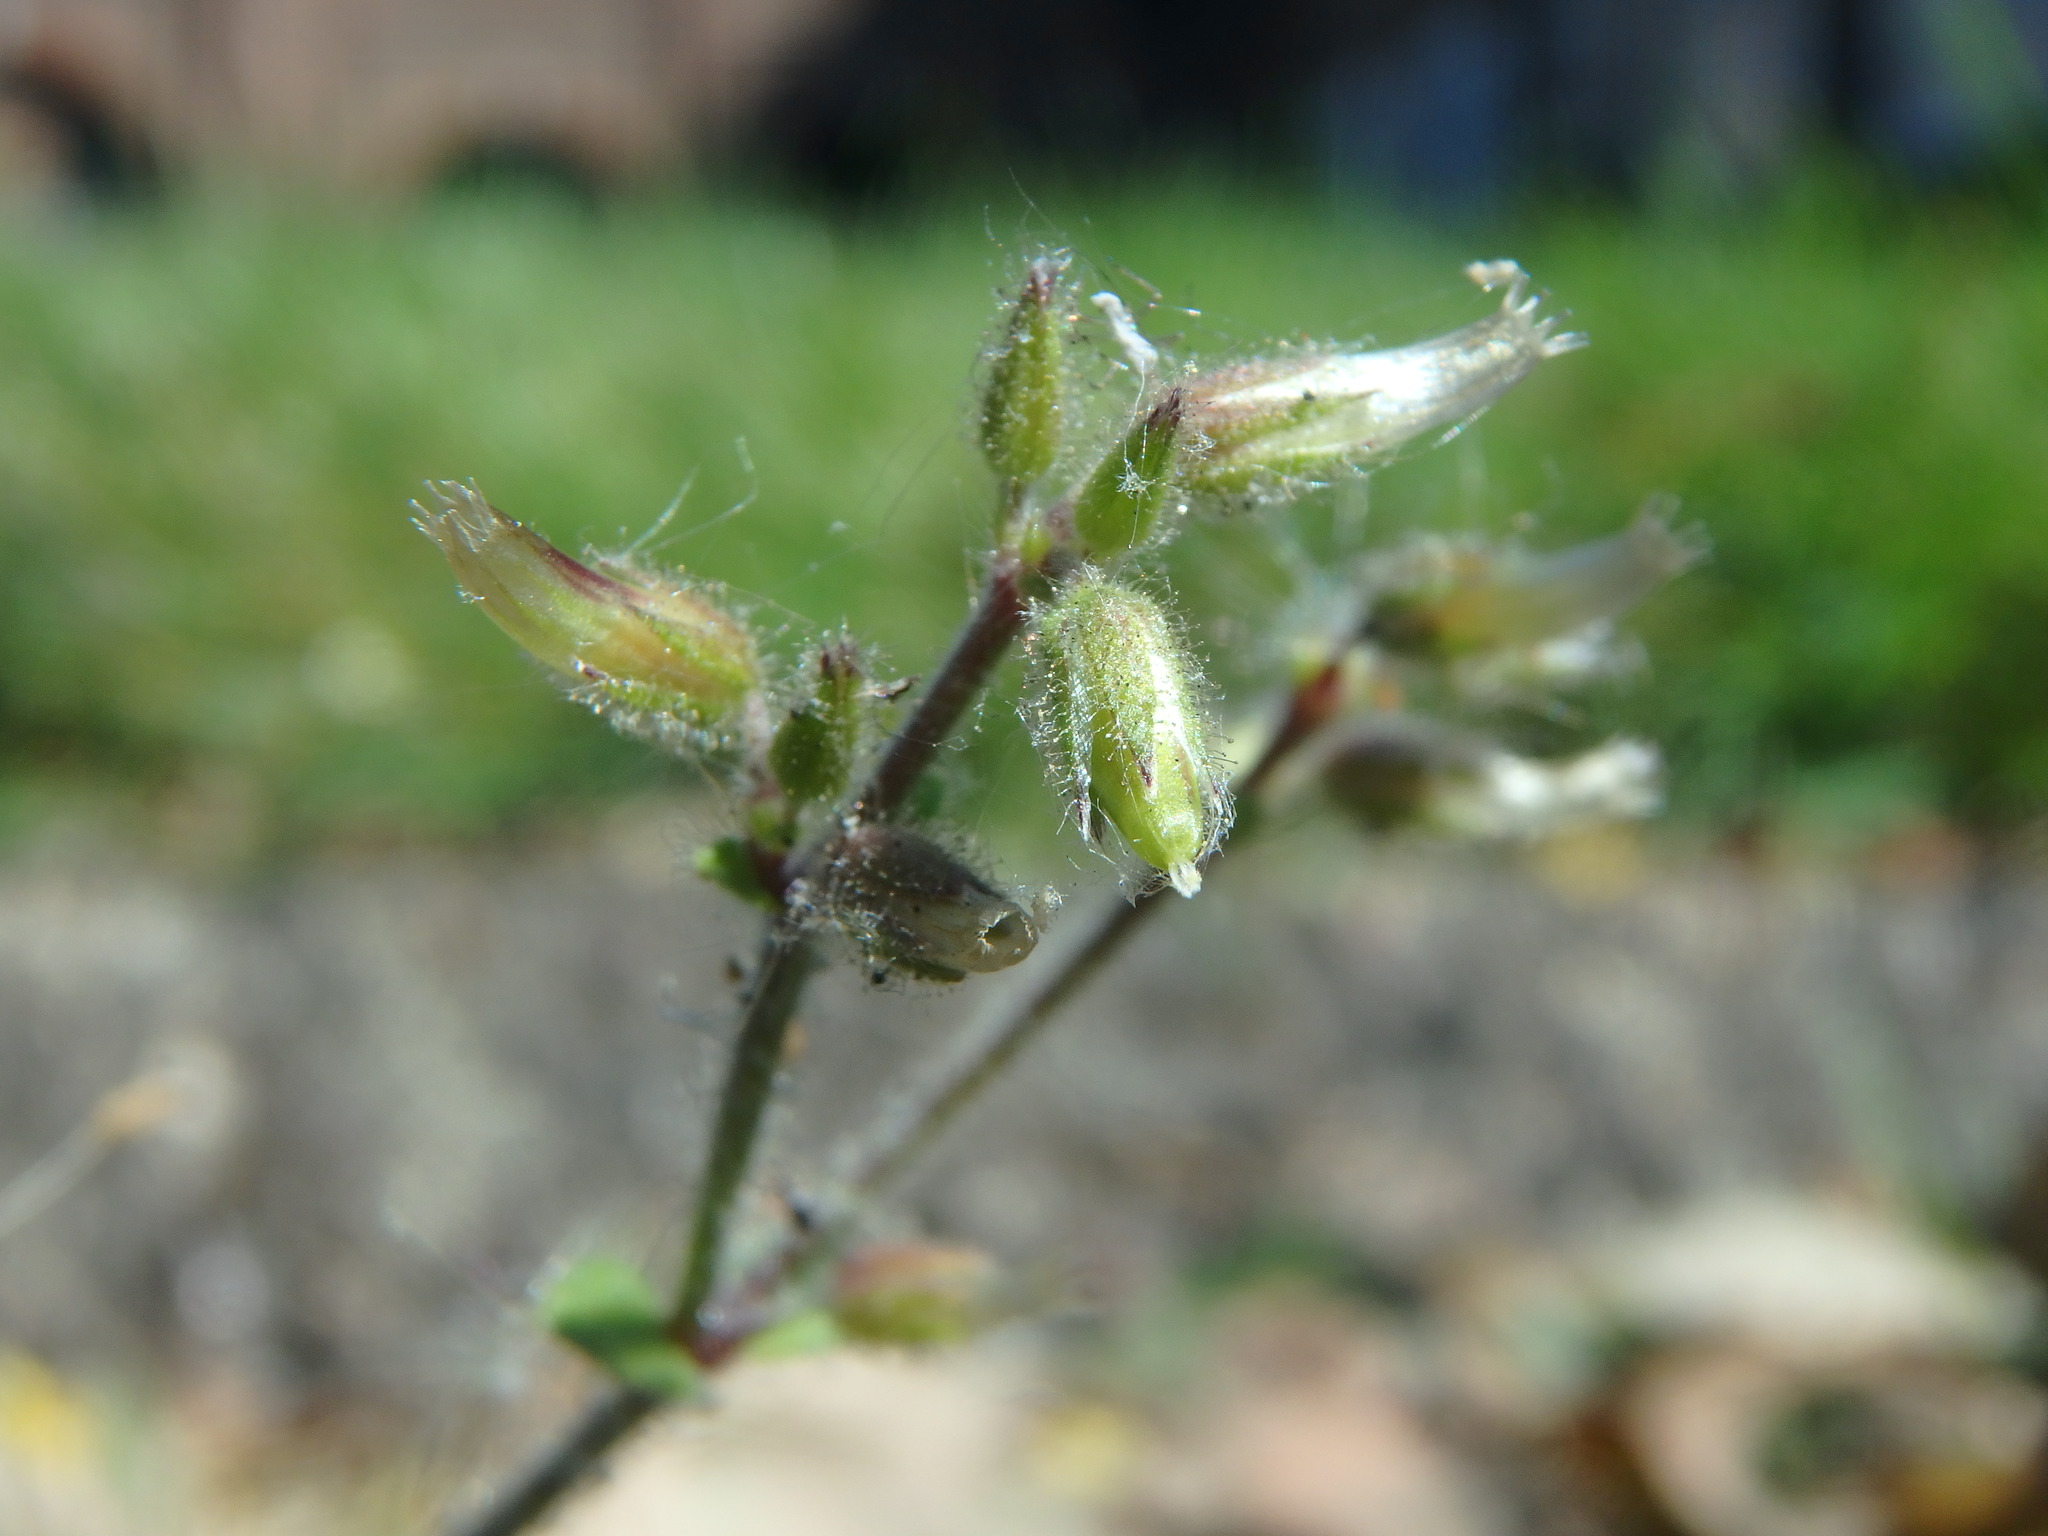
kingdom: Plantae
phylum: Tracheophyta
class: Magnoliopsida
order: Caryophyllales
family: Caryophyllaceae
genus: Cerastium
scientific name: Cerastium glomeratum
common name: Sticky chickweed
